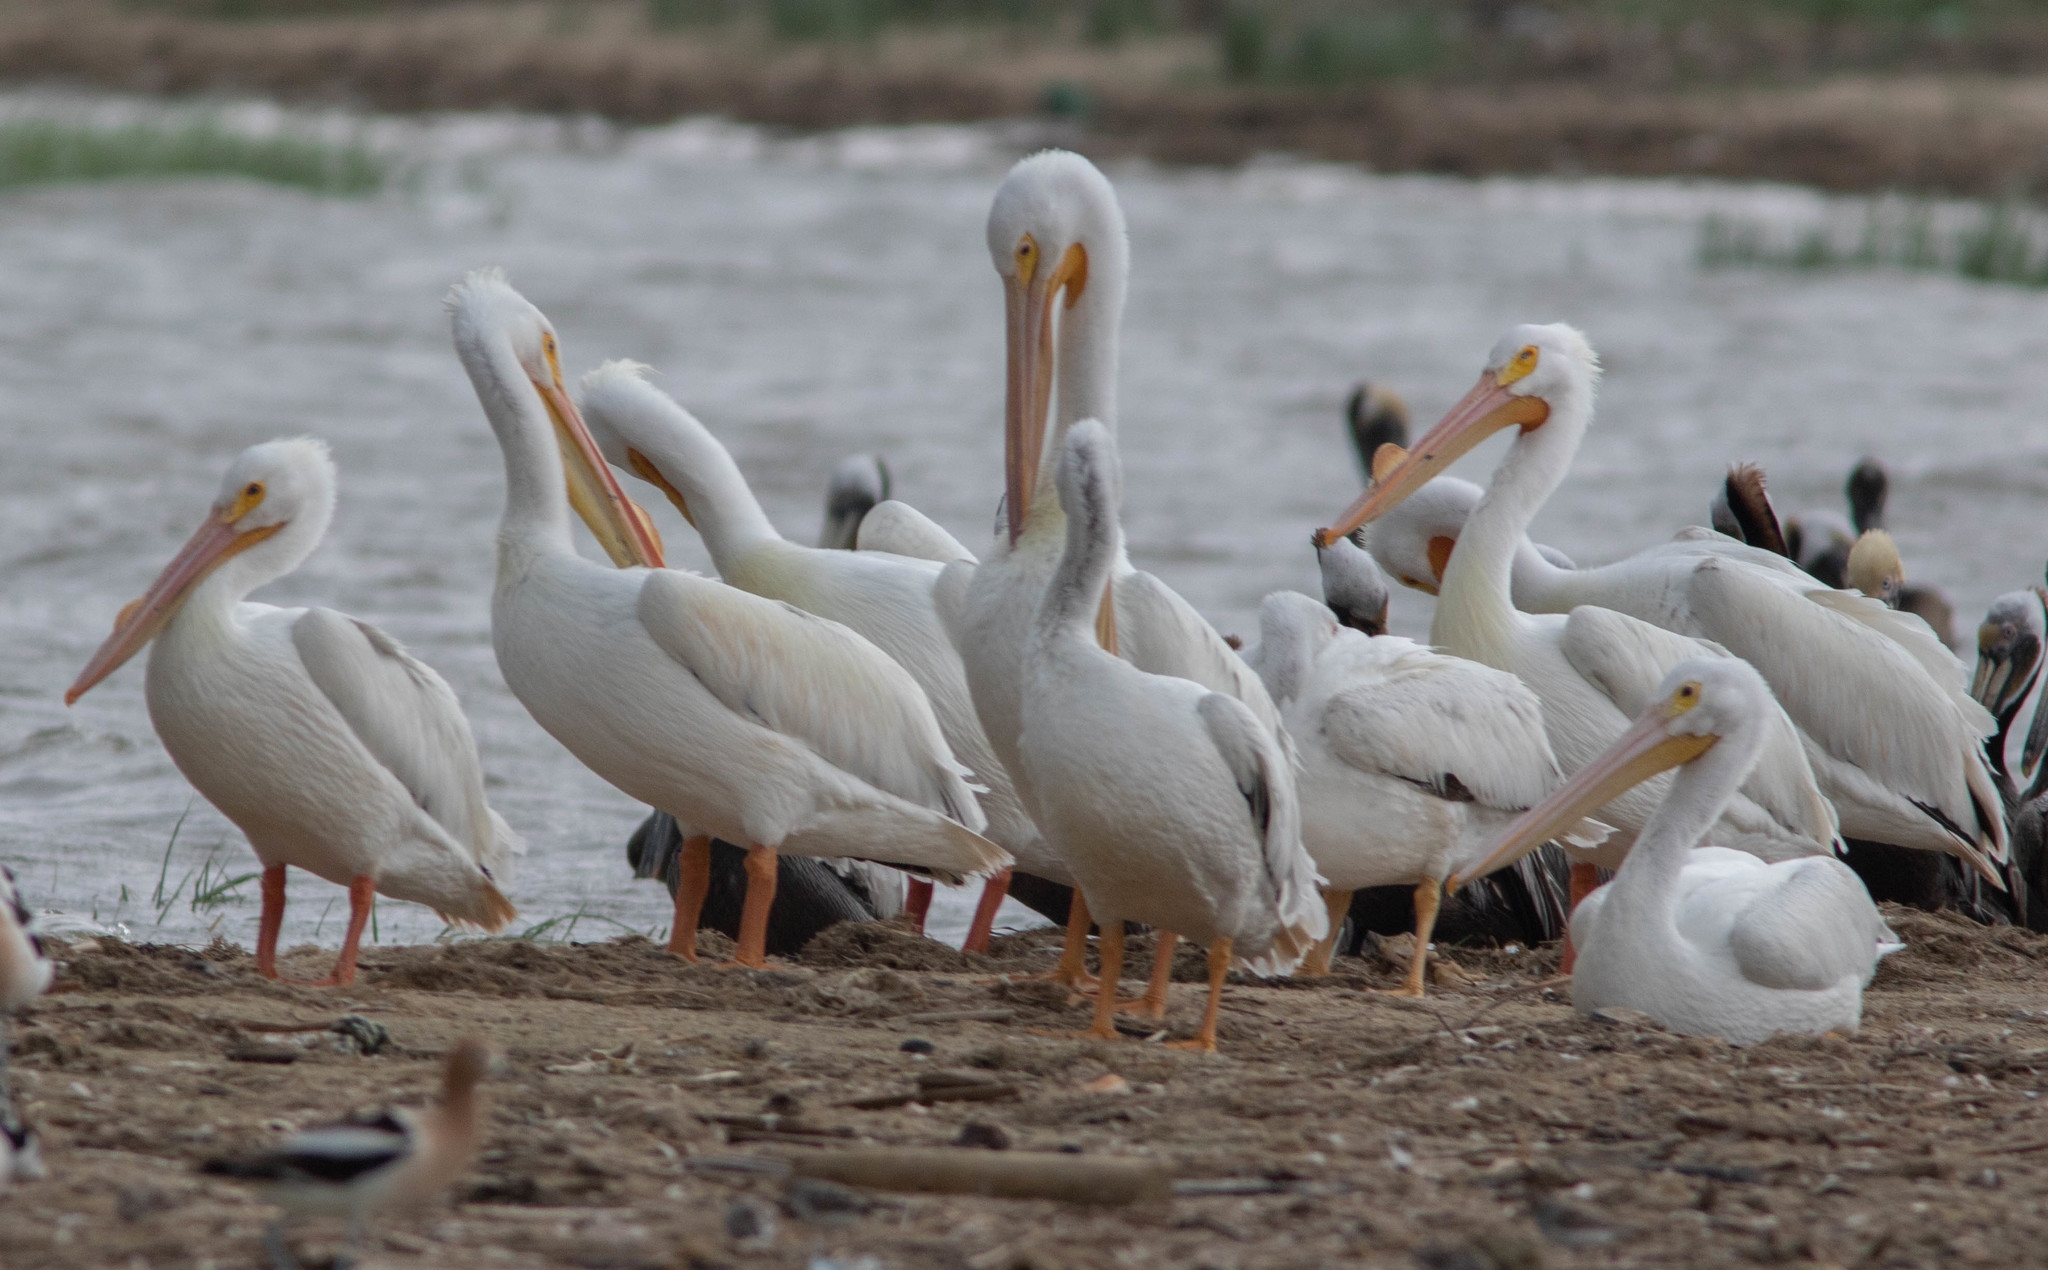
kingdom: Animalia
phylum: Chordata
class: Aves
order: Pelecaniformes
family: Pelecanidae
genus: Pelecanus
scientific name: Pelecanus erythrorhynchos
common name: American white pelican
